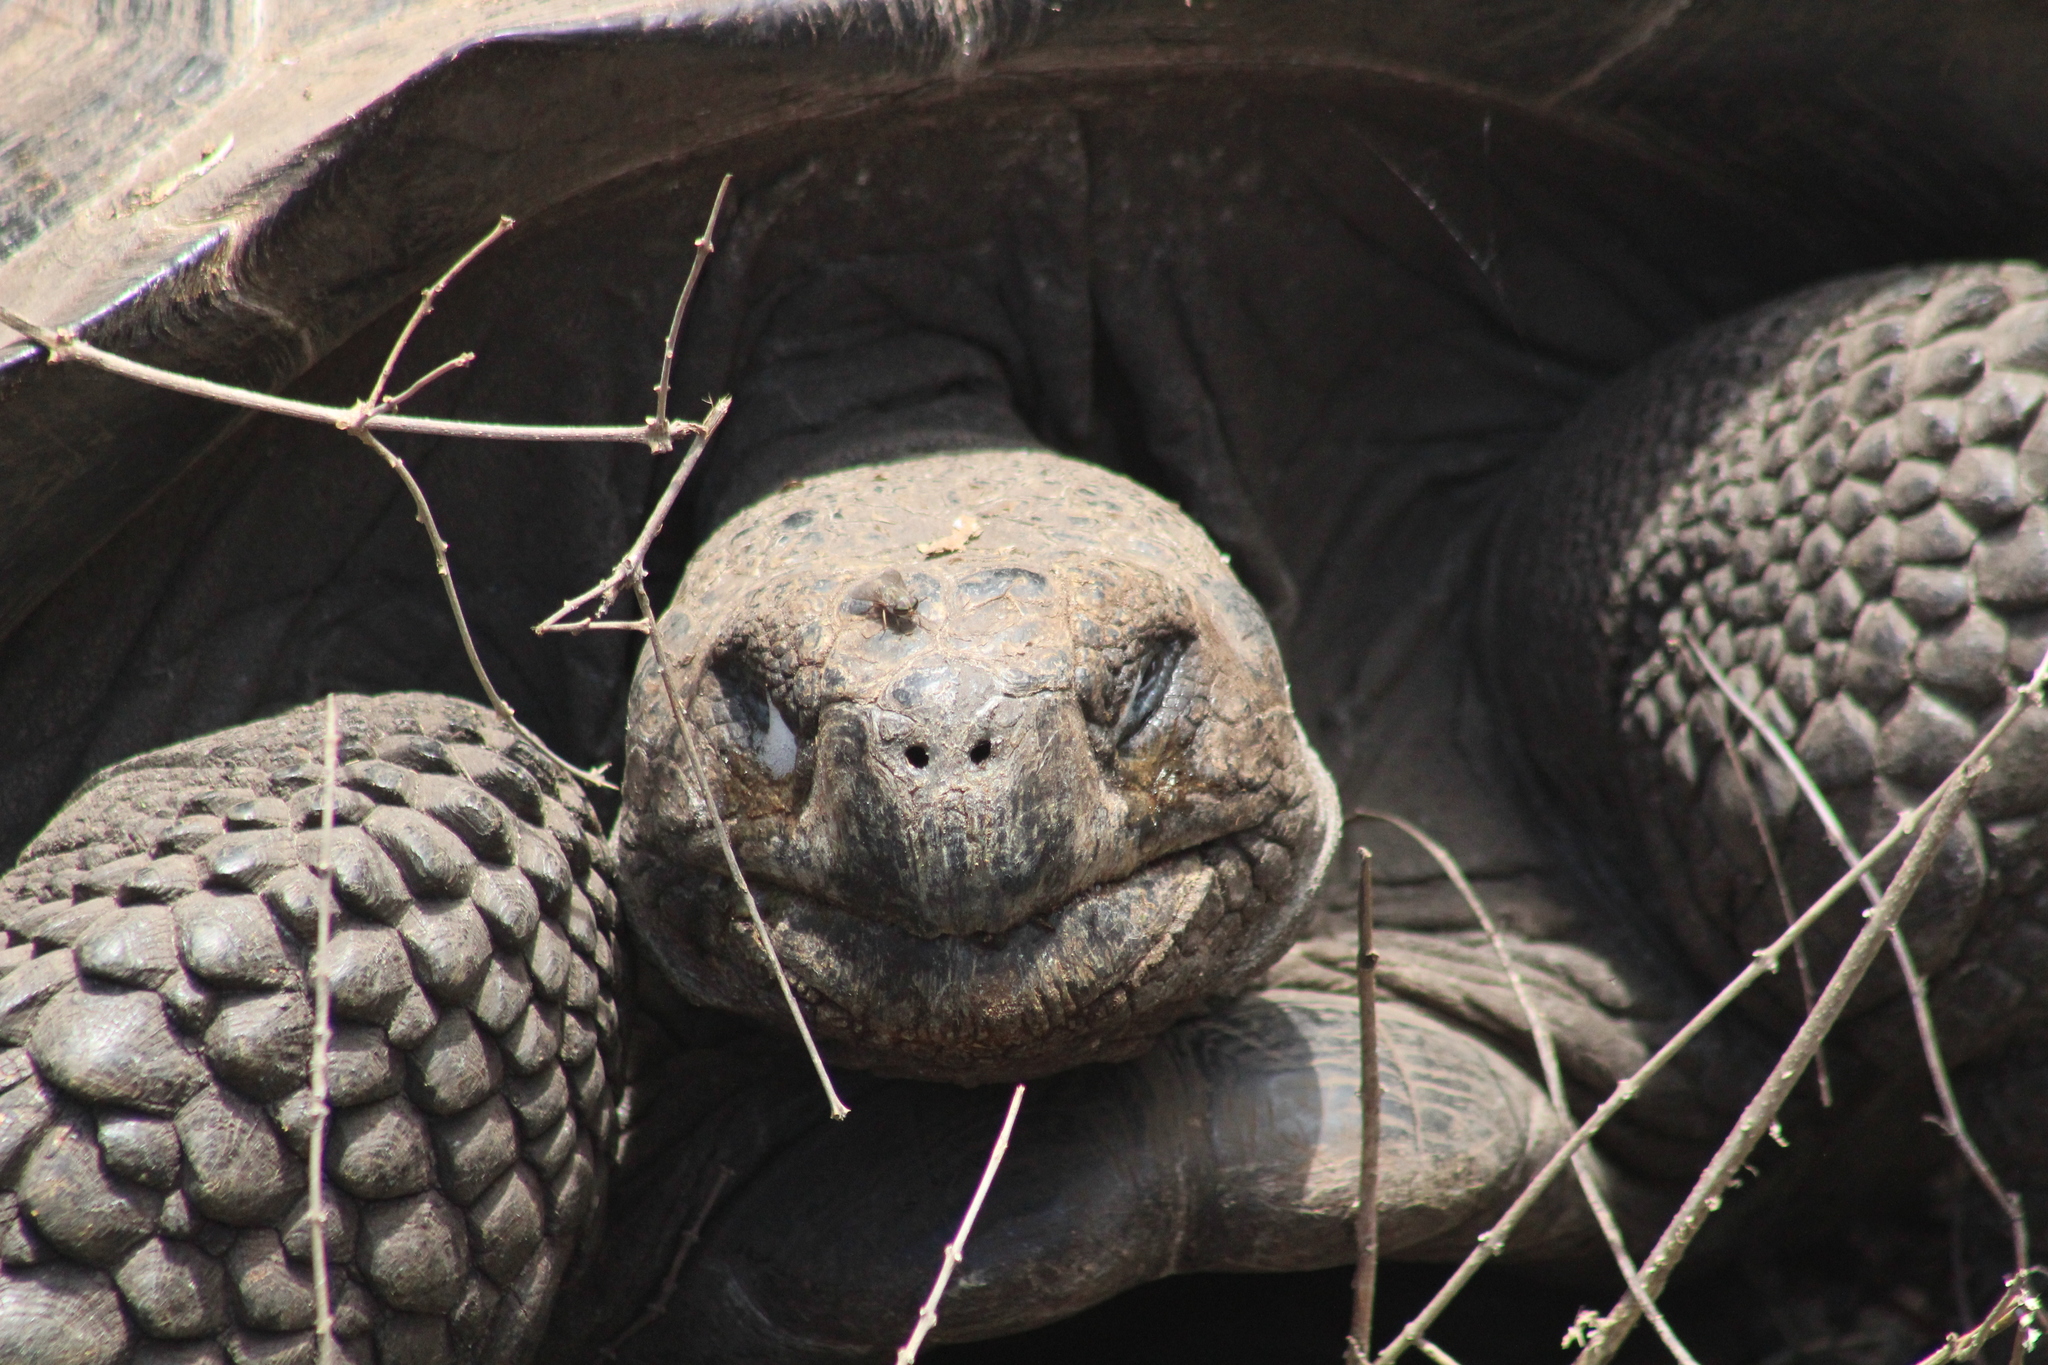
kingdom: Animalia
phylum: Chordata
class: Testudines
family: Testudinidae
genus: Chelonoidis
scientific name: Chelonoidis guntheri
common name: Sierra negra giant tortoise
